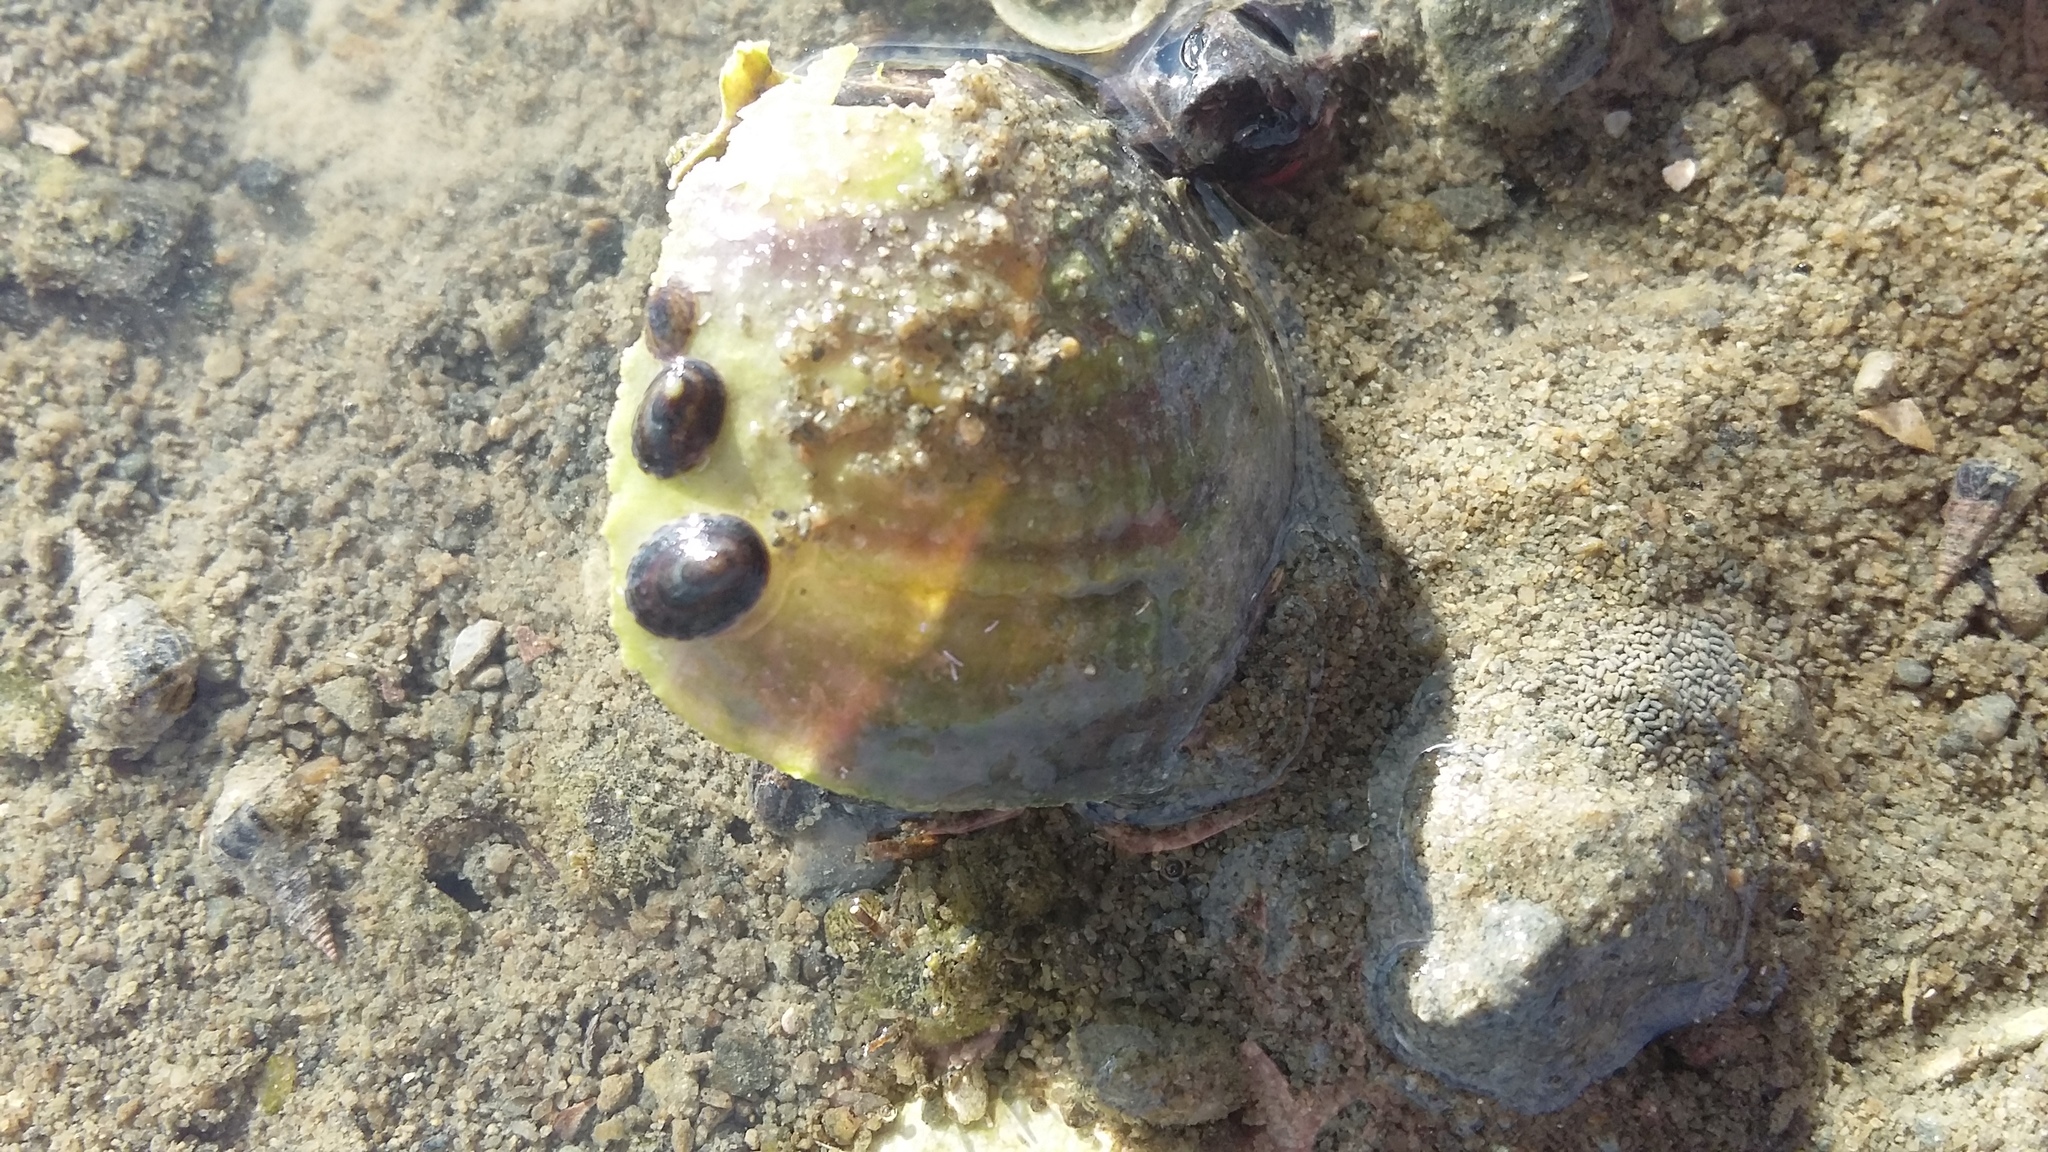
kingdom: Animalia
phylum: Mollusca
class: Gastropoda
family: Lottiidae
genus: Notoacmea
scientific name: Notoacmea scapha
